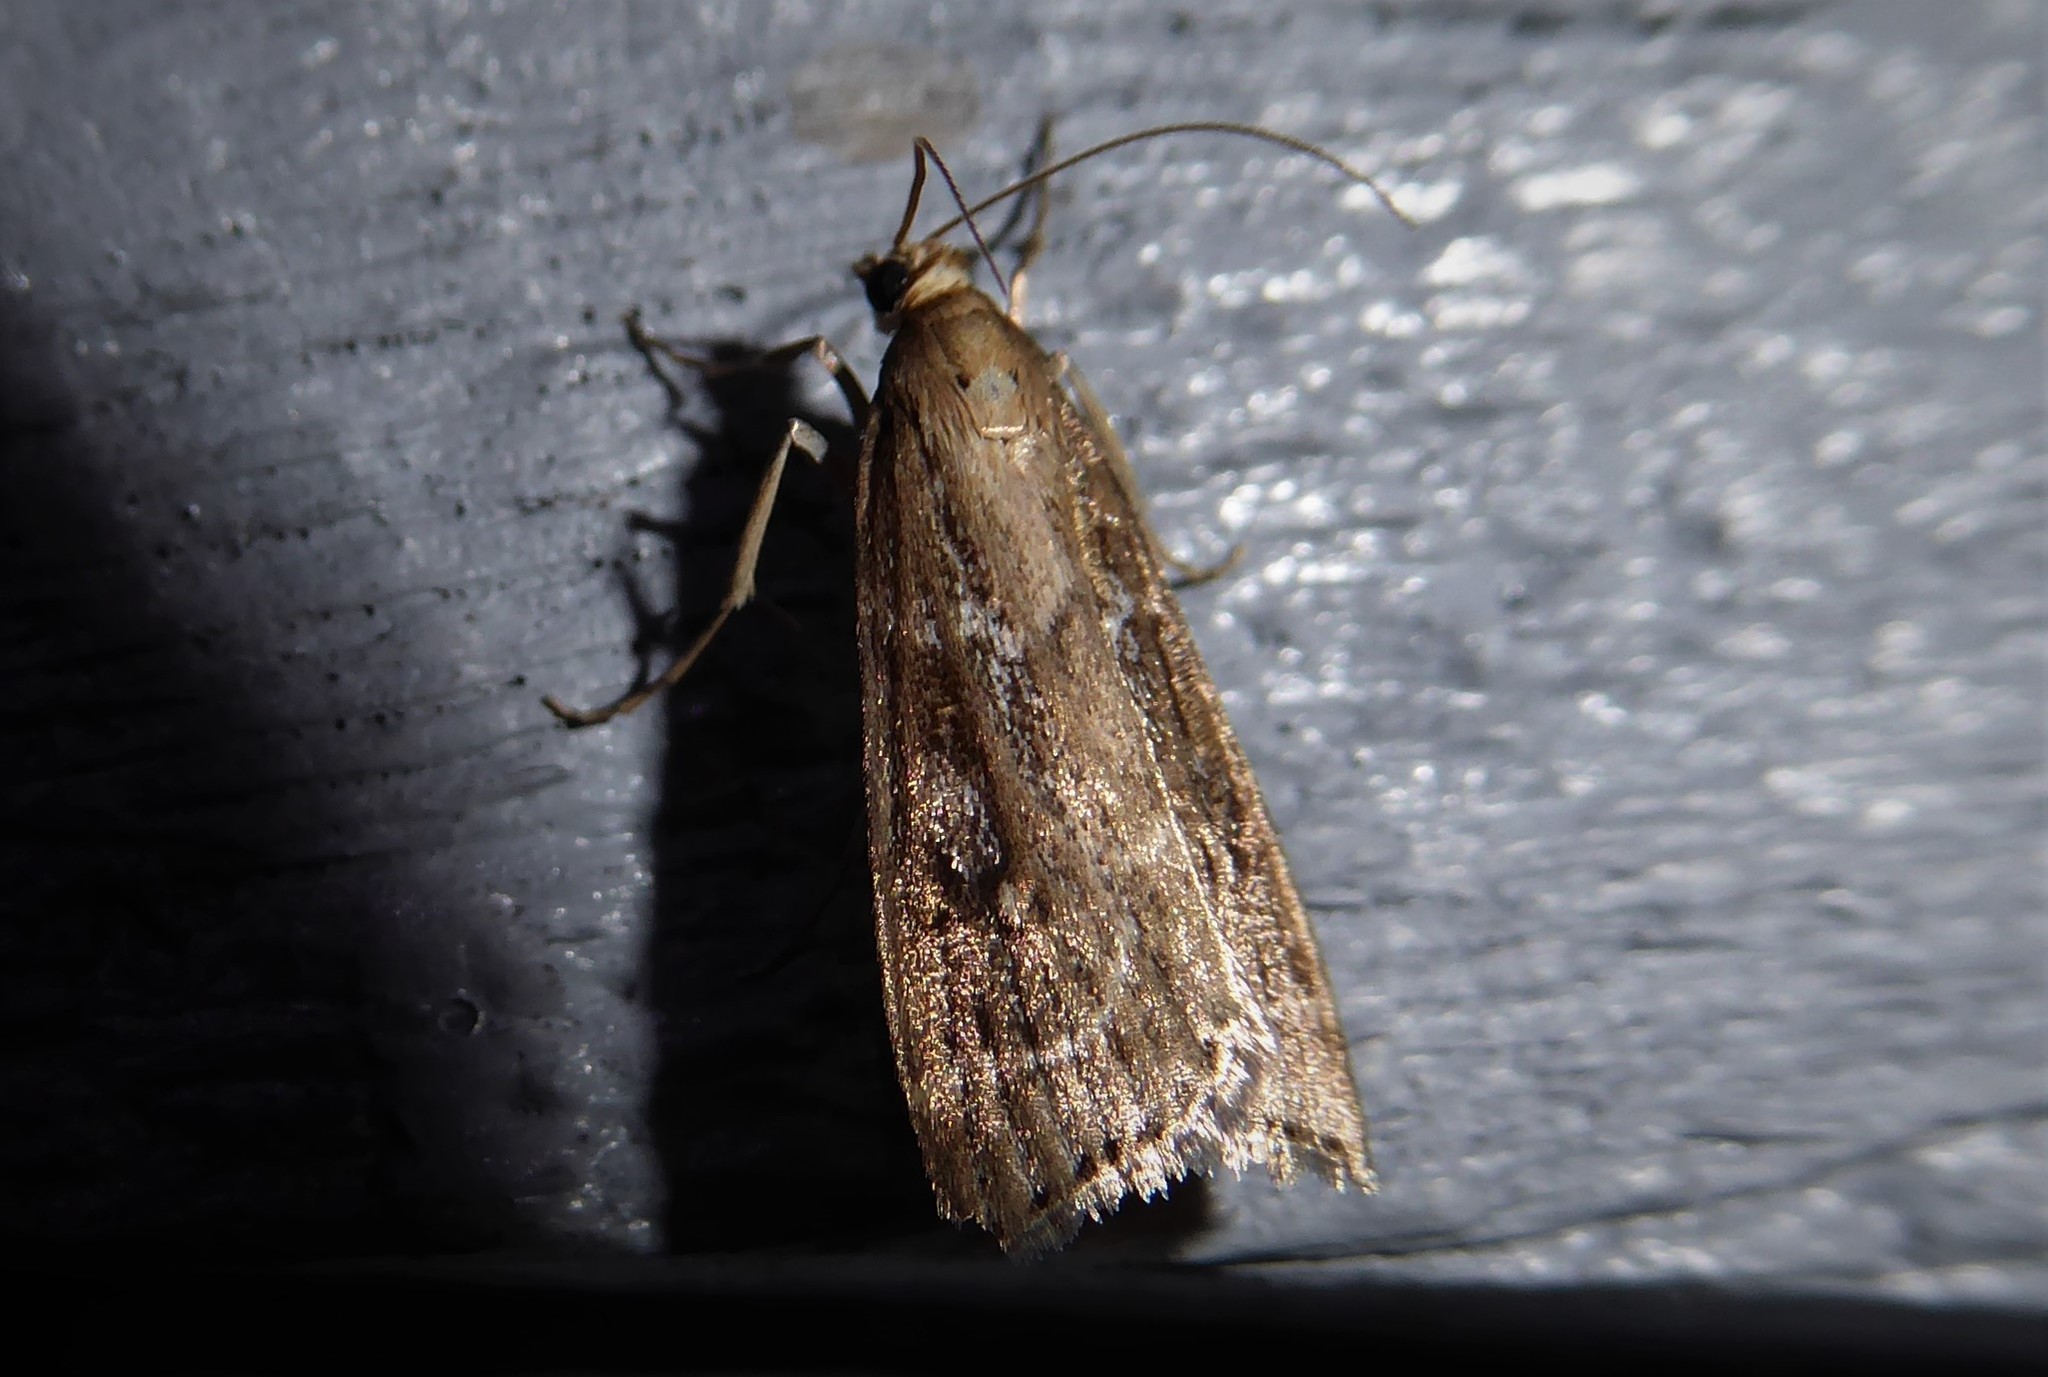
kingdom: Animalia
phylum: Arthropoda
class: Insecta
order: Lepidoptera
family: Crambidae
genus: Eudonia
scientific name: Eudonia octophora
